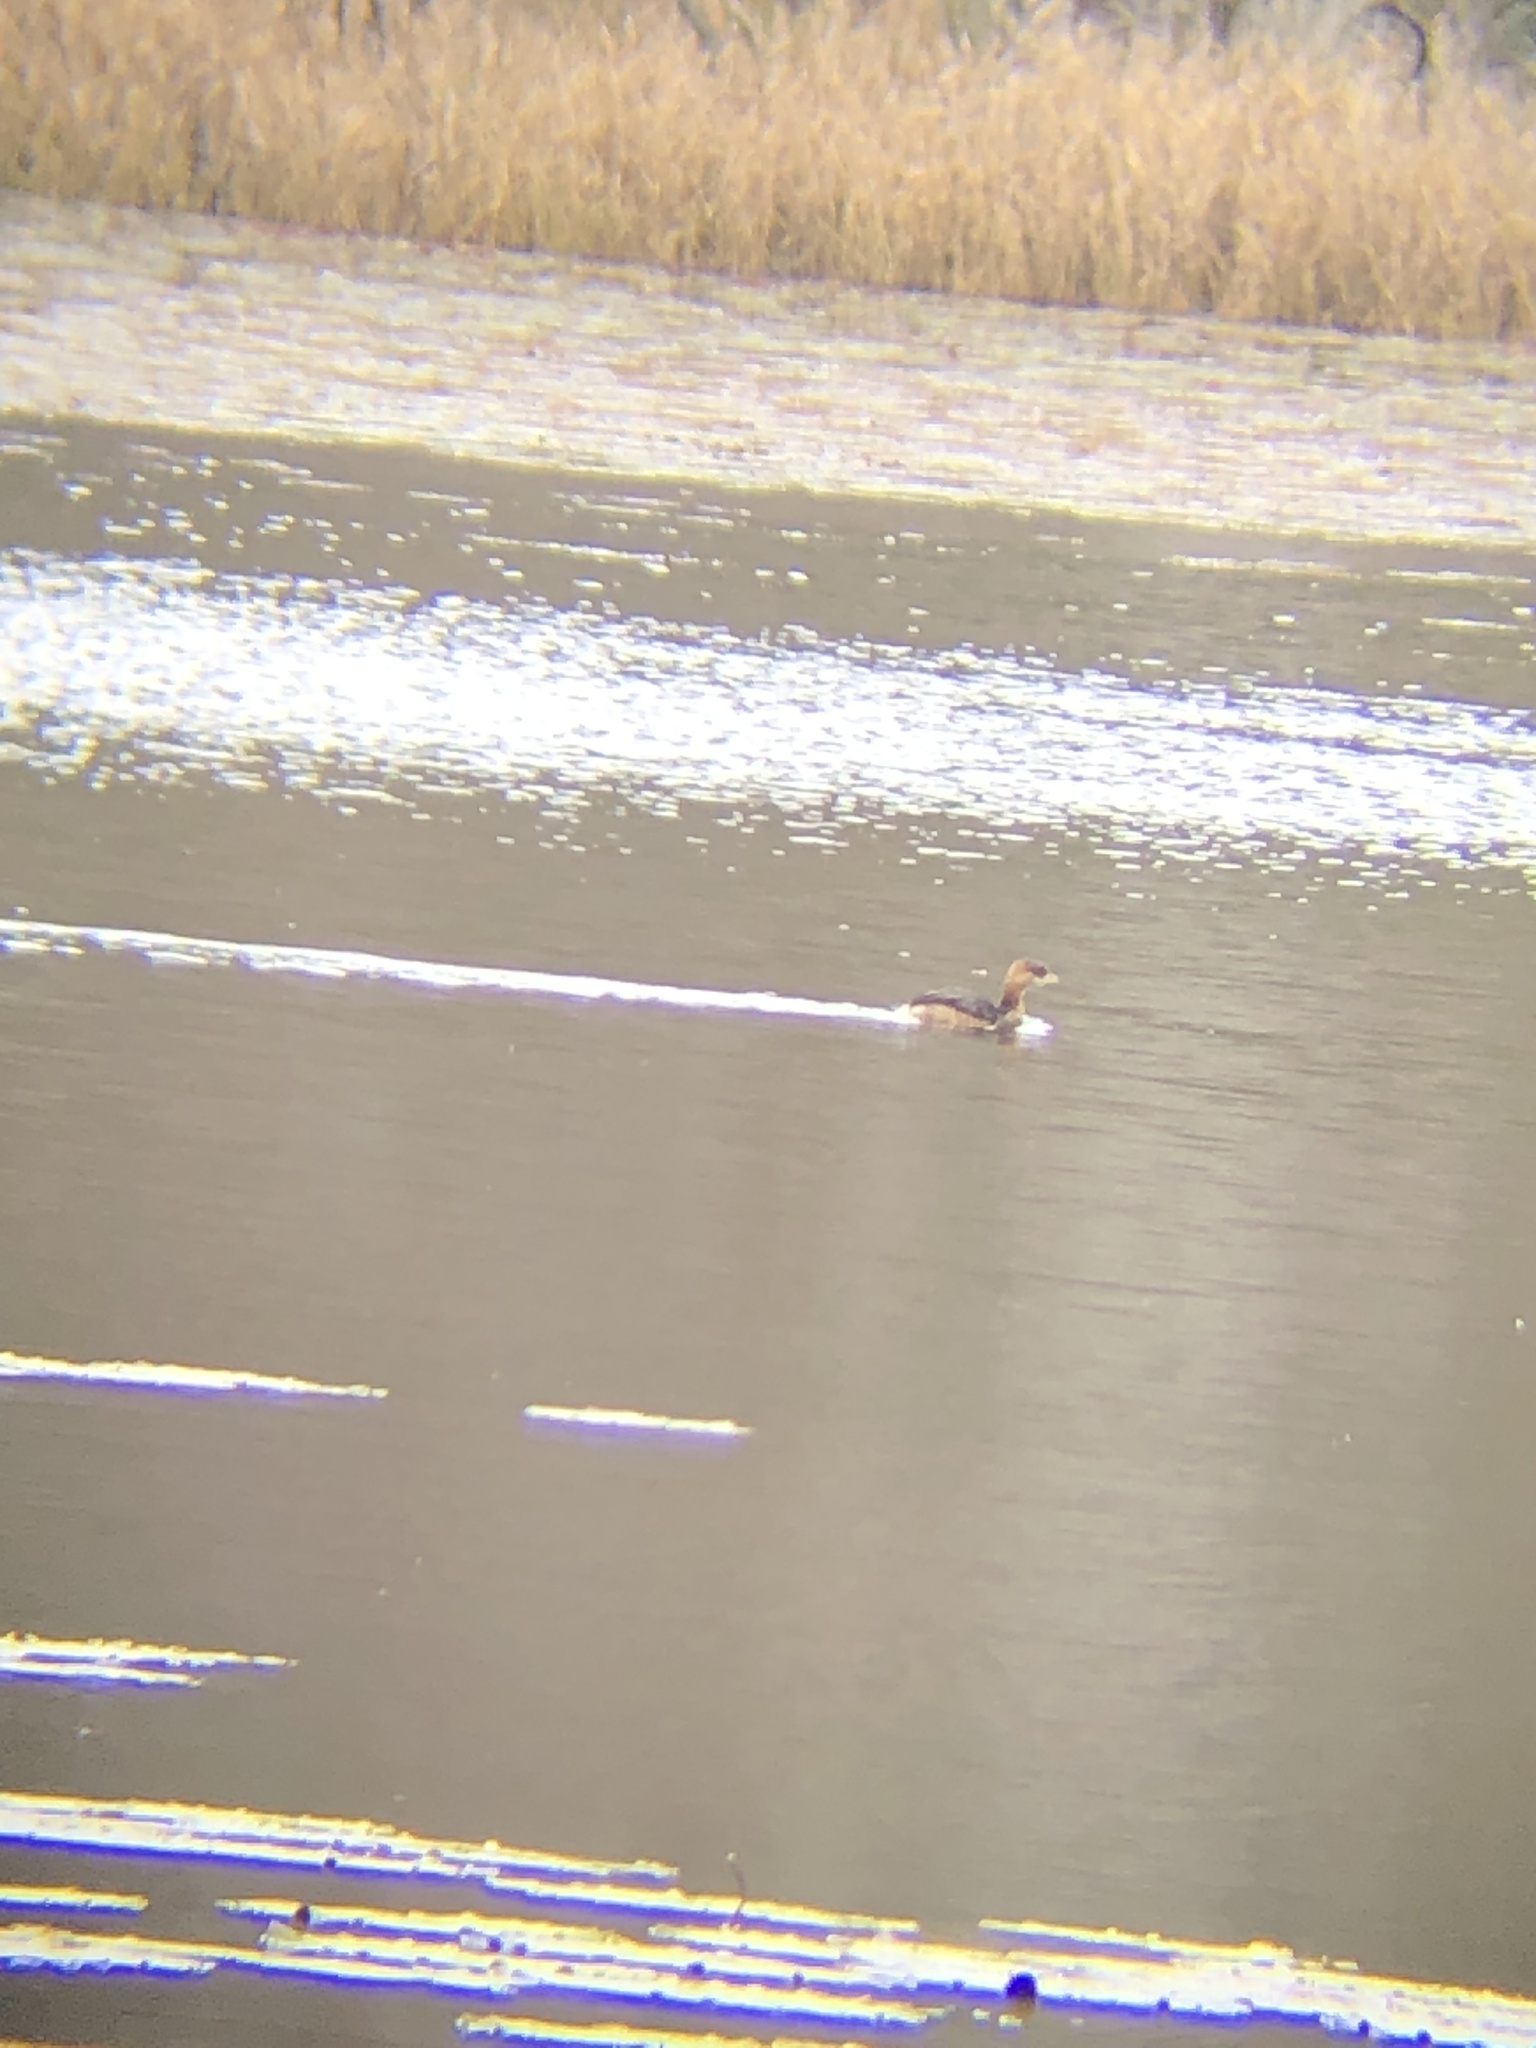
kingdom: Animalia
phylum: Chordata
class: Aves
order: Podicipediformes
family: Podicipedidae
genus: Podilymbus
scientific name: Podilymbus podiceps
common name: Pied-billed grebe
